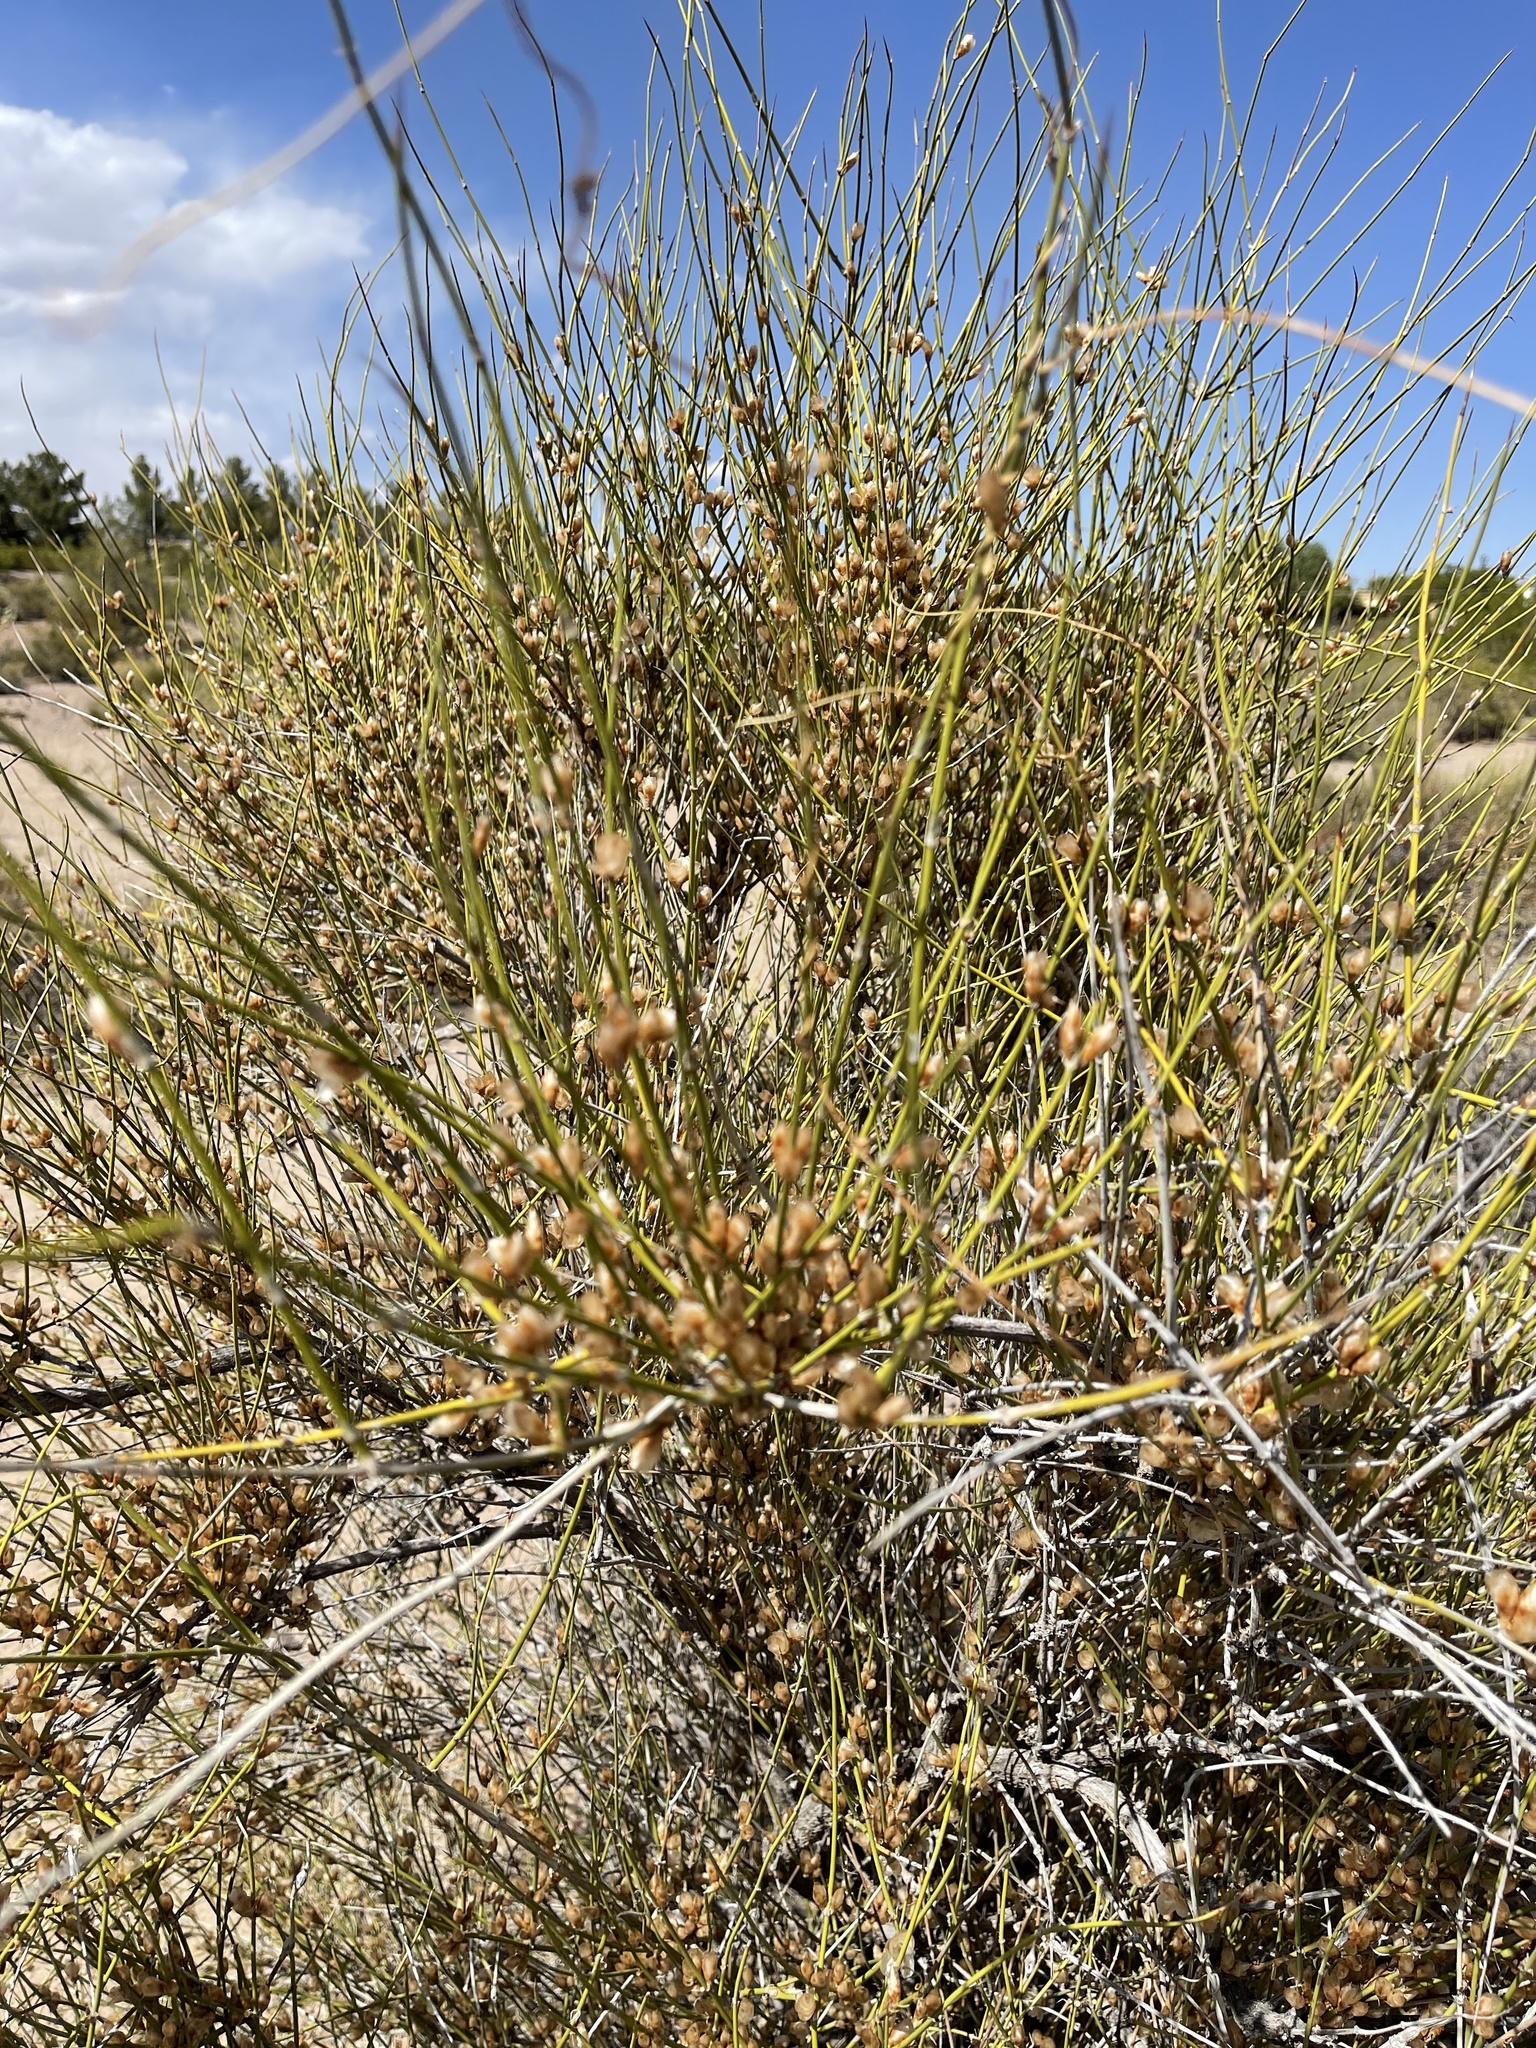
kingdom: Plantae
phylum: Tracheophyta
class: Gnetopsida
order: Ephedrales
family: Ephedraceae
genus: Ephedra
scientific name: Ephedra trifurca
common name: Mexican-tea
